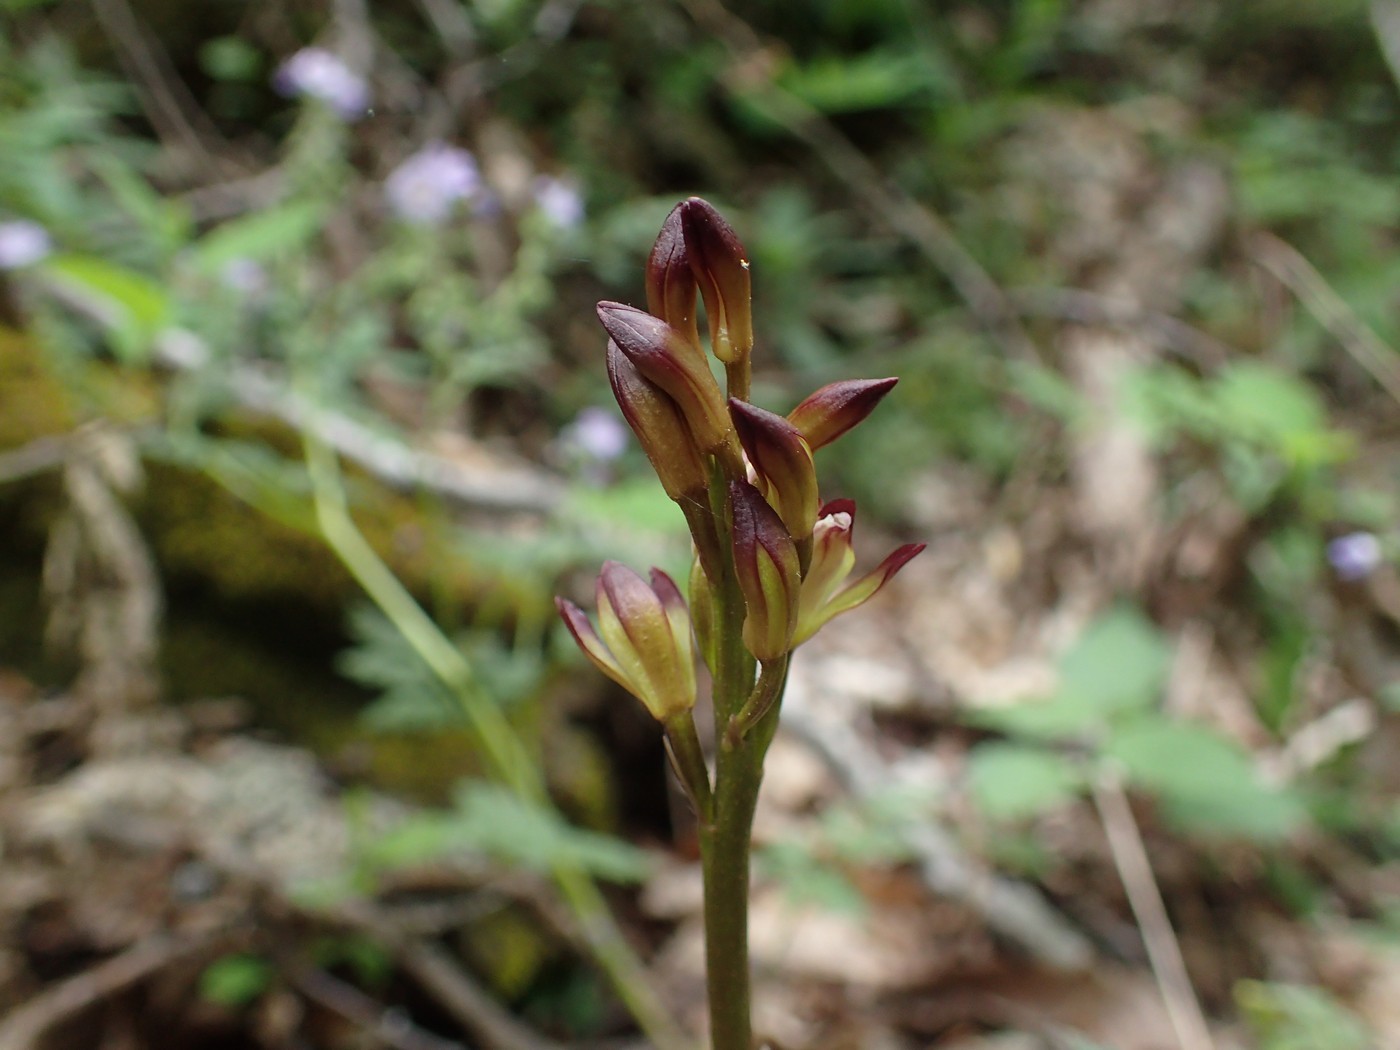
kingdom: Plantae
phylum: Tracheophyta
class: Liliopsida
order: Asparagales
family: Orchidaceae
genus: Aplectrum
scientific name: Aplectrum hyemale
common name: Adam-and-eve
